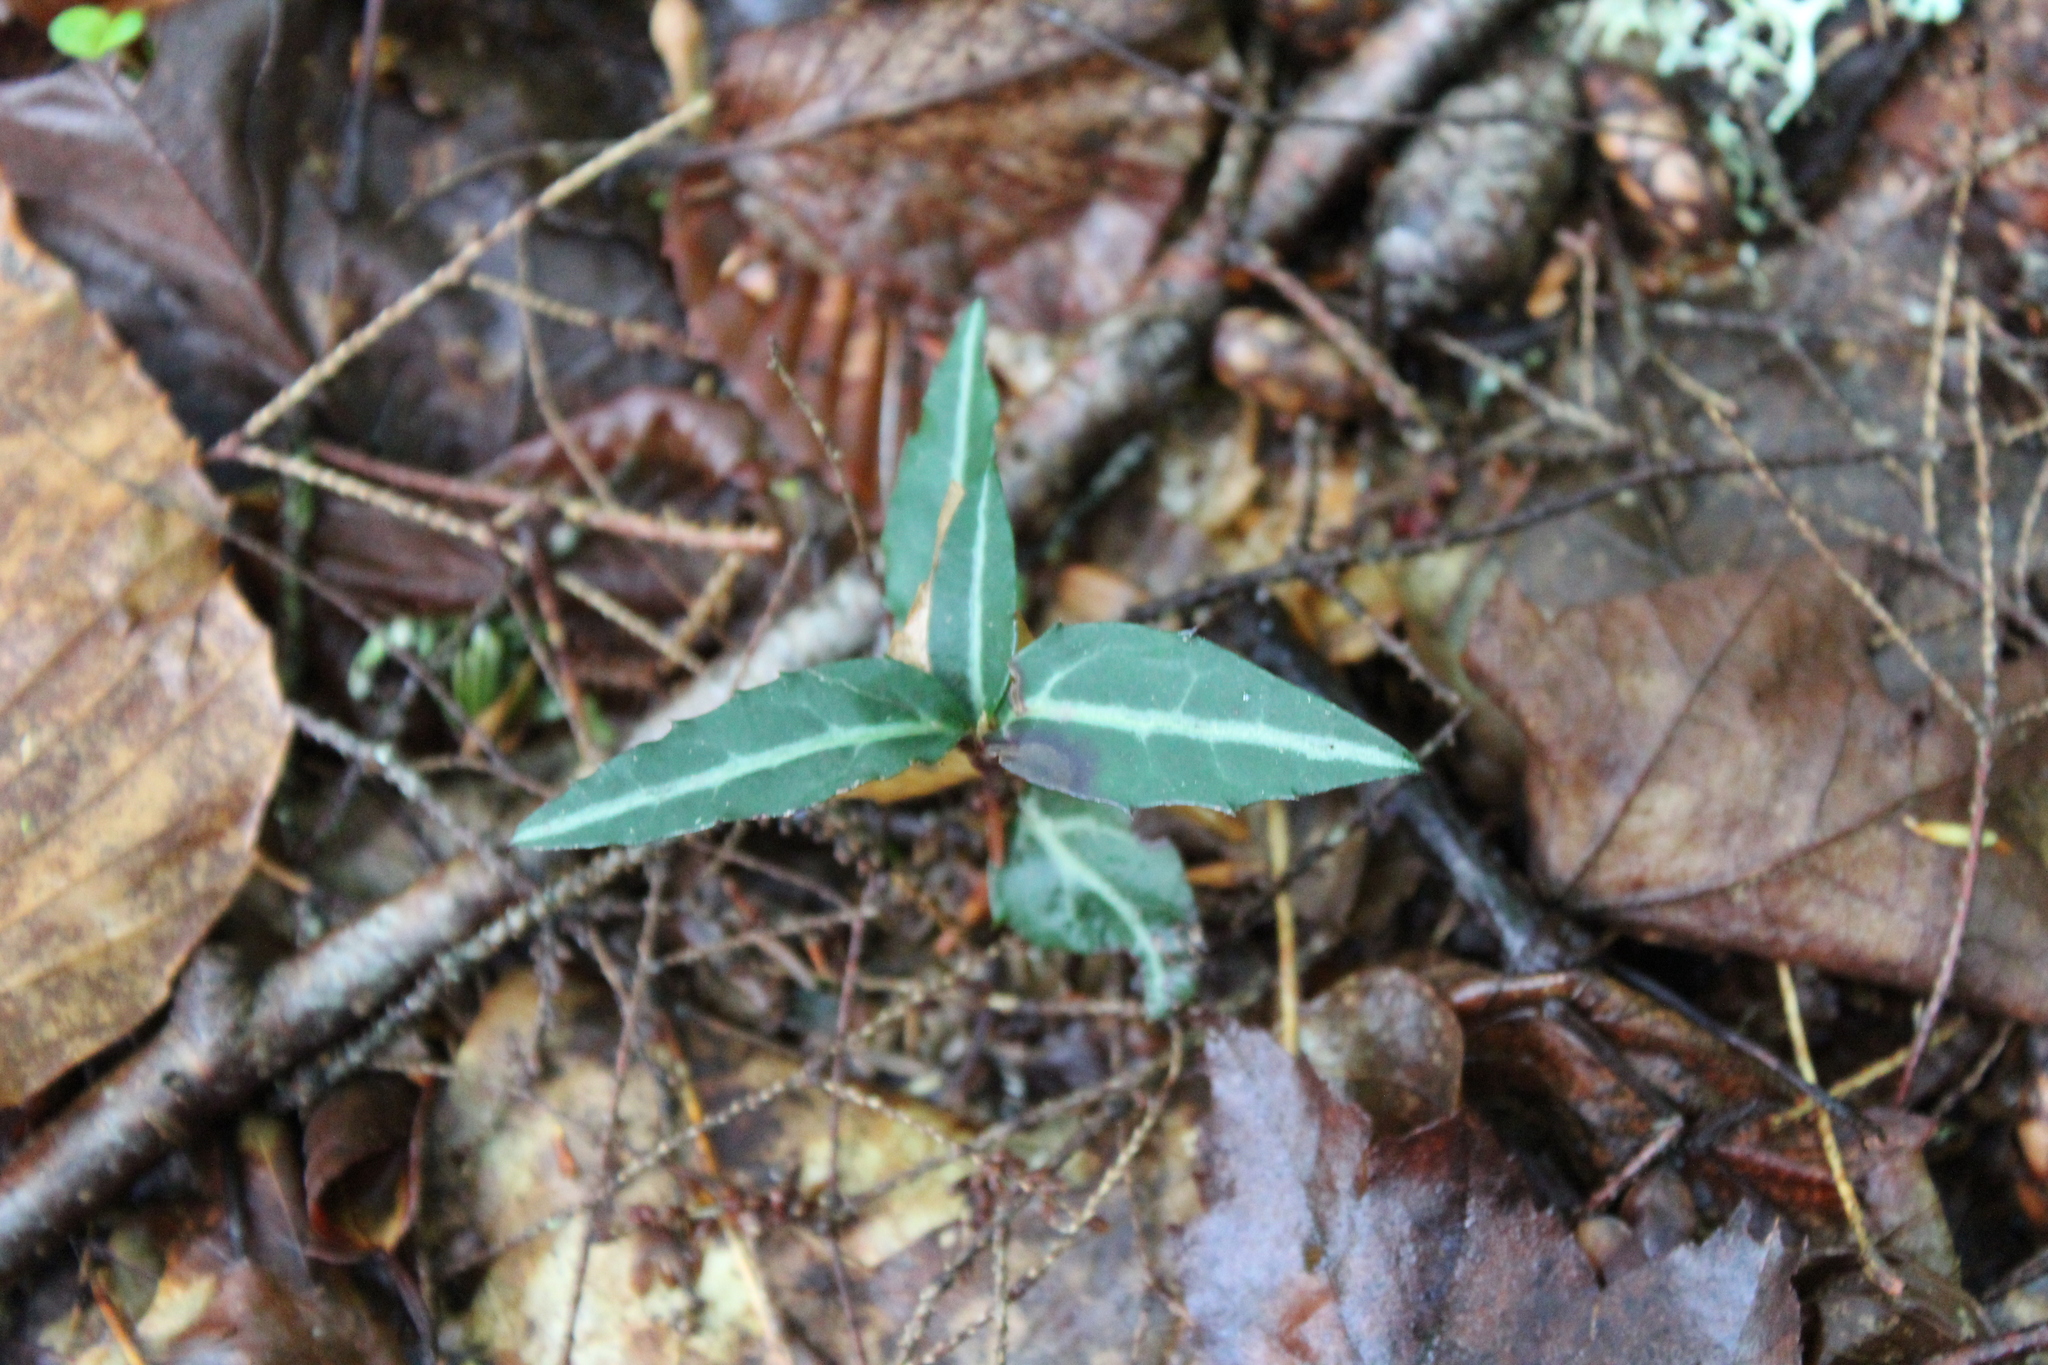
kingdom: Plantae
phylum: Tracheophyta
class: Magnoliopsida
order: Ericales
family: Ericaceae
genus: Chimaphila
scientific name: Chimaphila maculata
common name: Spotted pipsissewa
